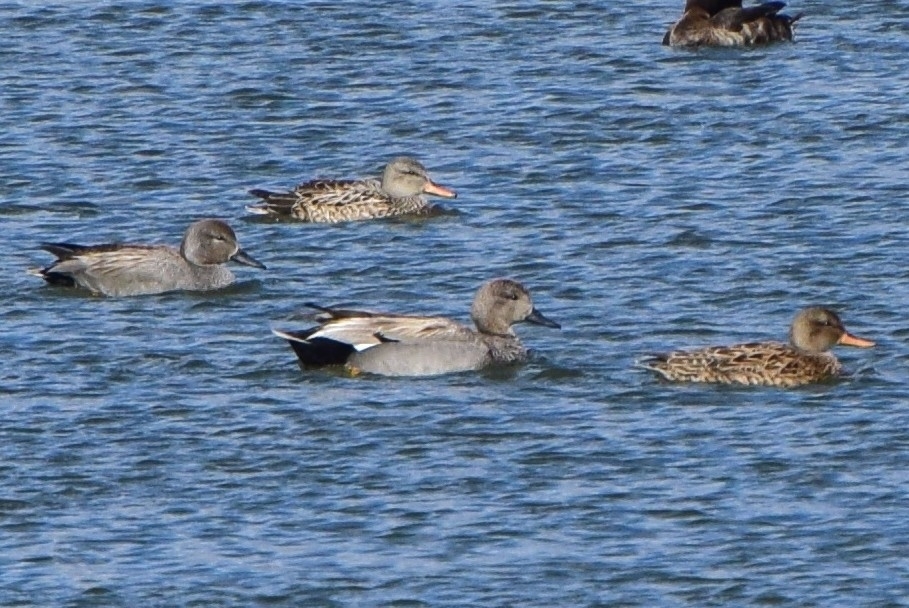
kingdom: Animalia
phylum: Chordata
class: Aves
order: Anseriformes
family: Anatidae
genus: Mareca
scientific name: Mareca strepera
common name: Gadwall
